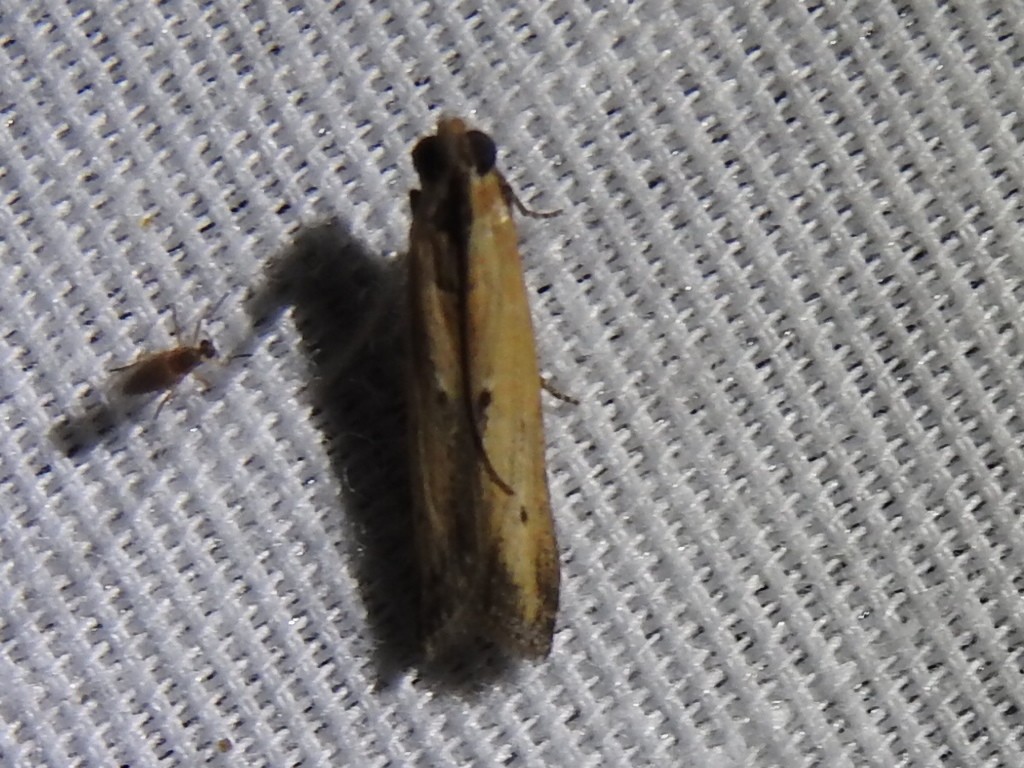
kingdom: Animalia
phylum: Arthropoda
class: Insecta
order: Lepidoptera
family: Pyralidae
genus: Elasmopalpus
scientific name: Elasmopalpus lignosella
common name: Lesser cornstalk borer
